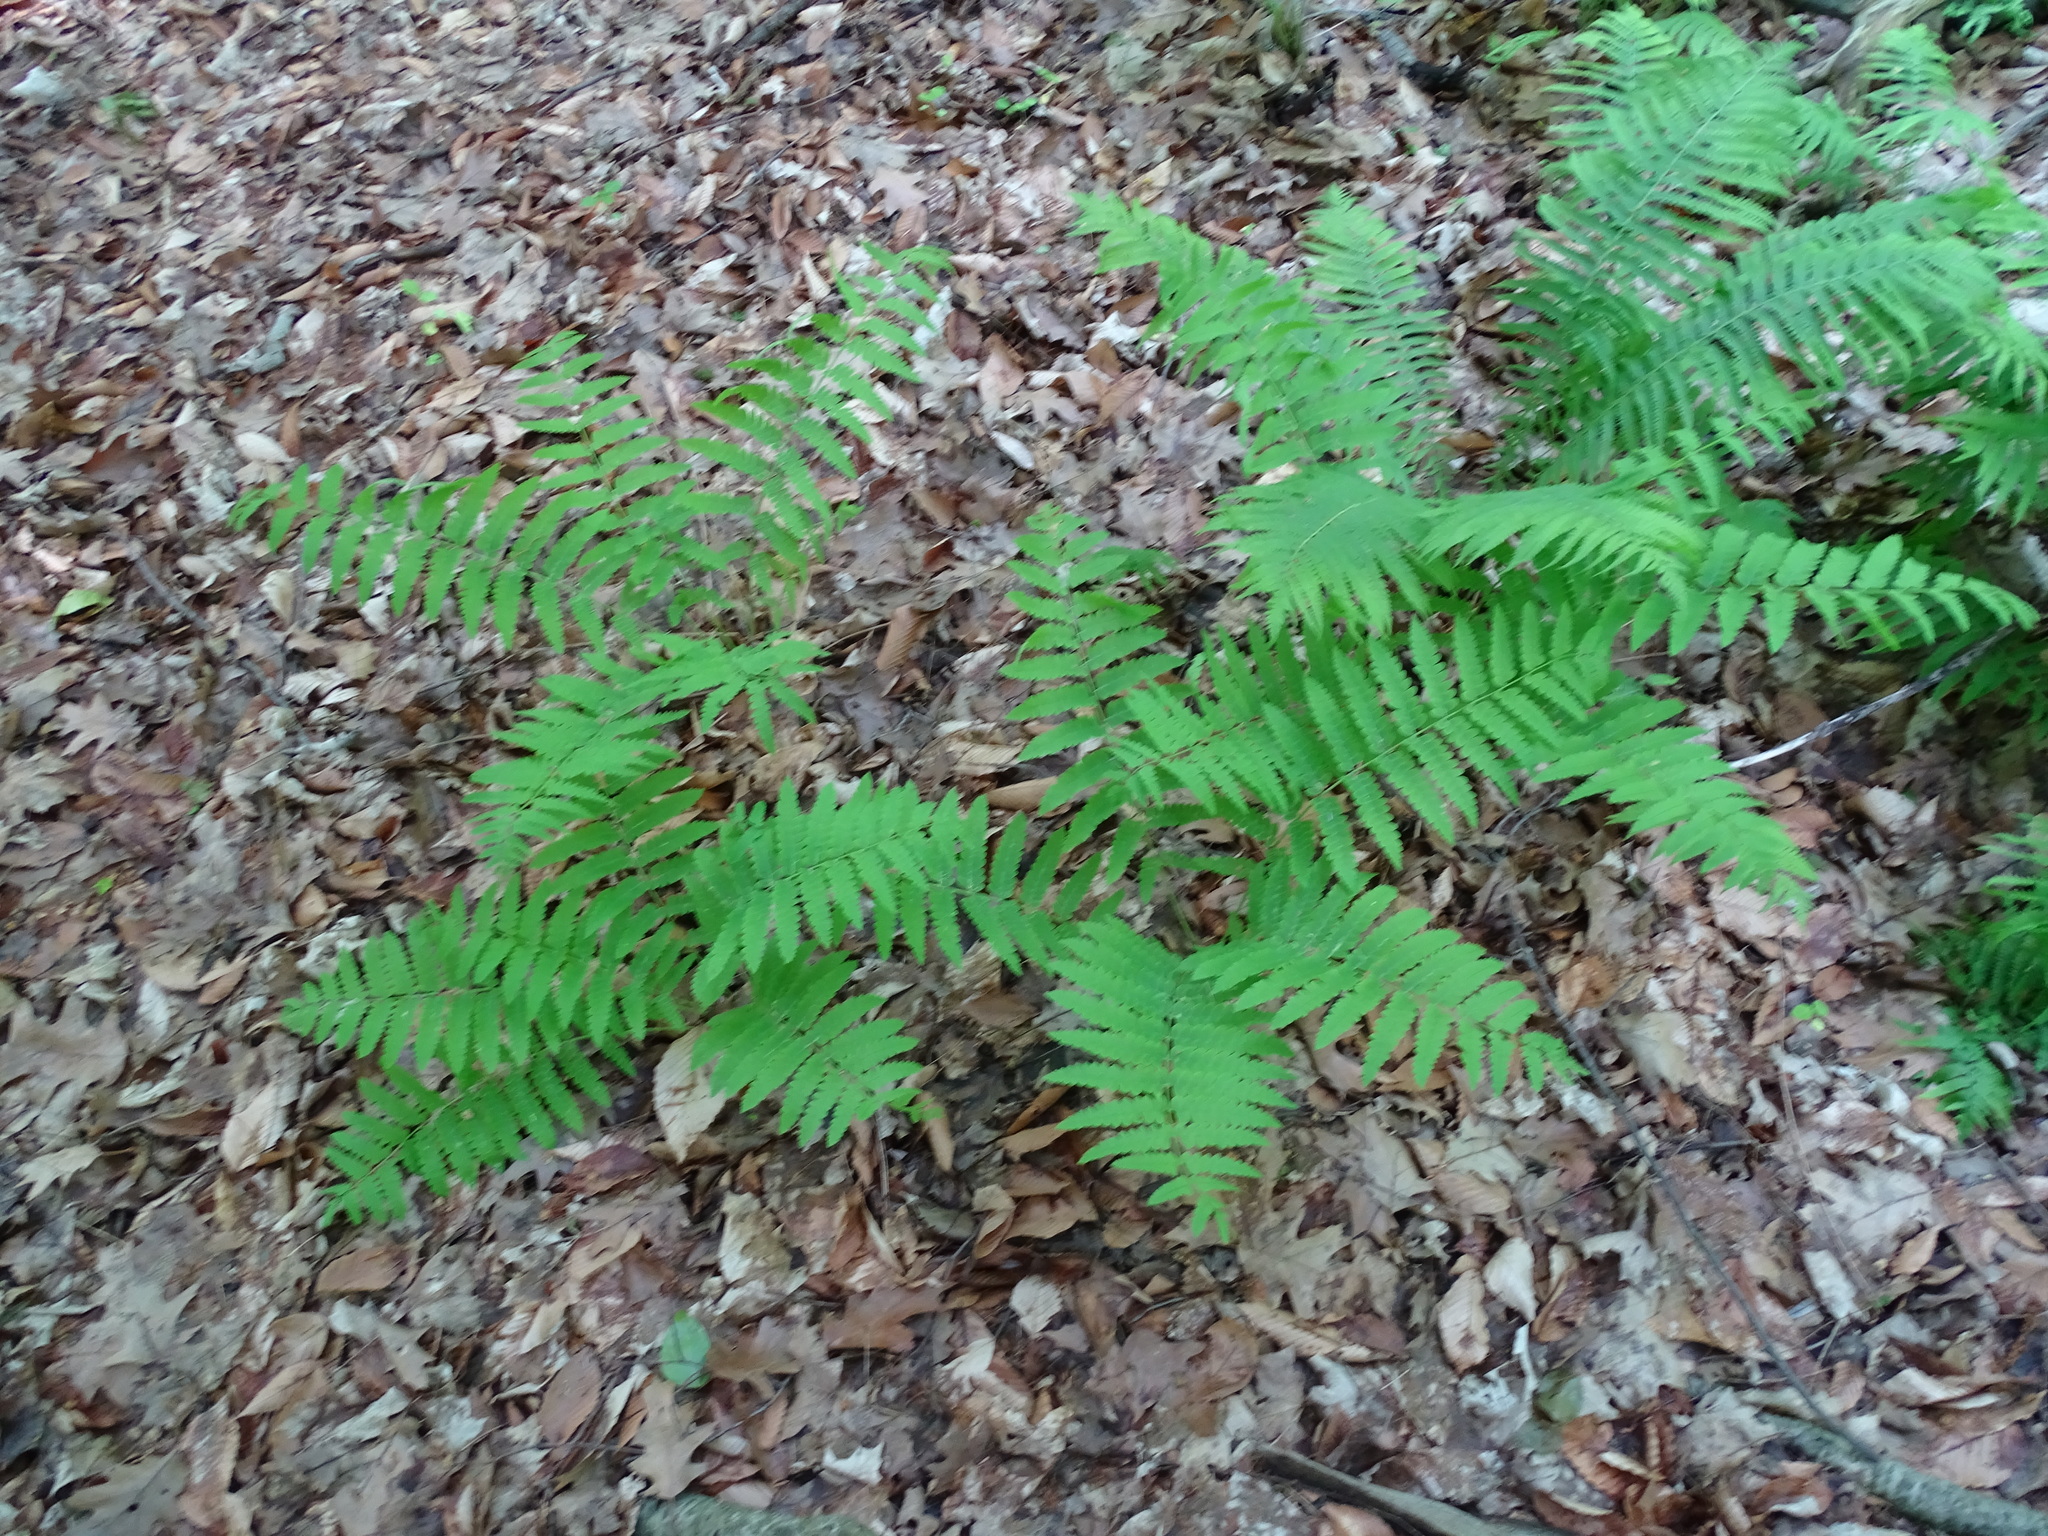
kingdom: Plantae
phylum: Tracheophyta
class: Polypodiopsida
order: Osmundales
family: Osmundaceae
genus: Claytosmunda
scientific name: Claytosmunda claytoniana
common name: Clayton's fern
